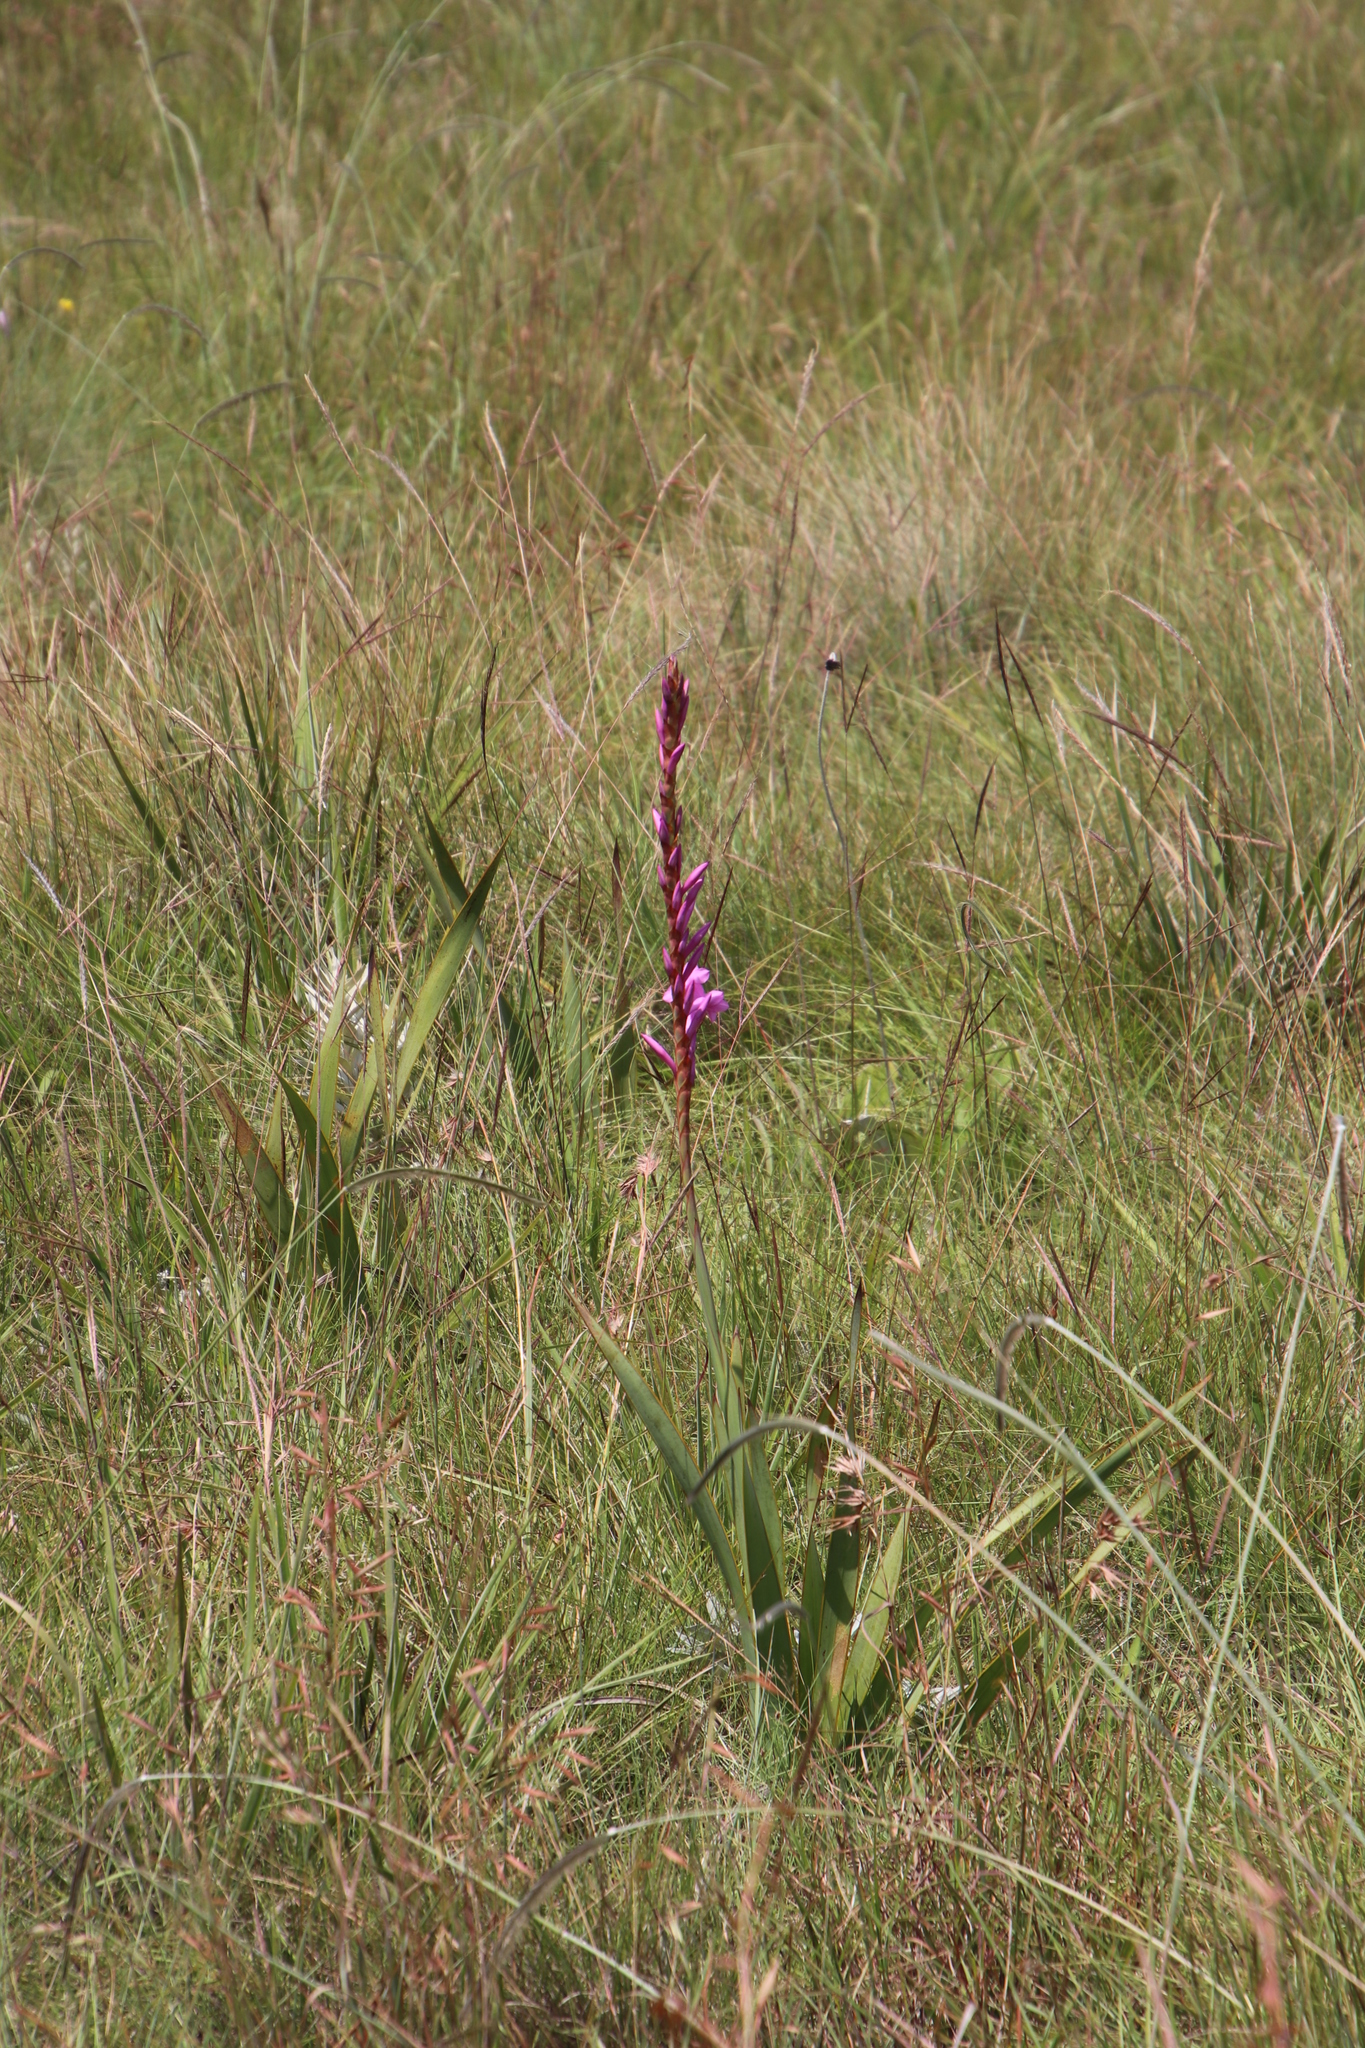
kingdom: Plantae
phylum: Tracheophyta
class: Liliopsida
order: Asparagales
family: Iridaceae
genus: Watsonia
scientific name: Watsonia pulchra
